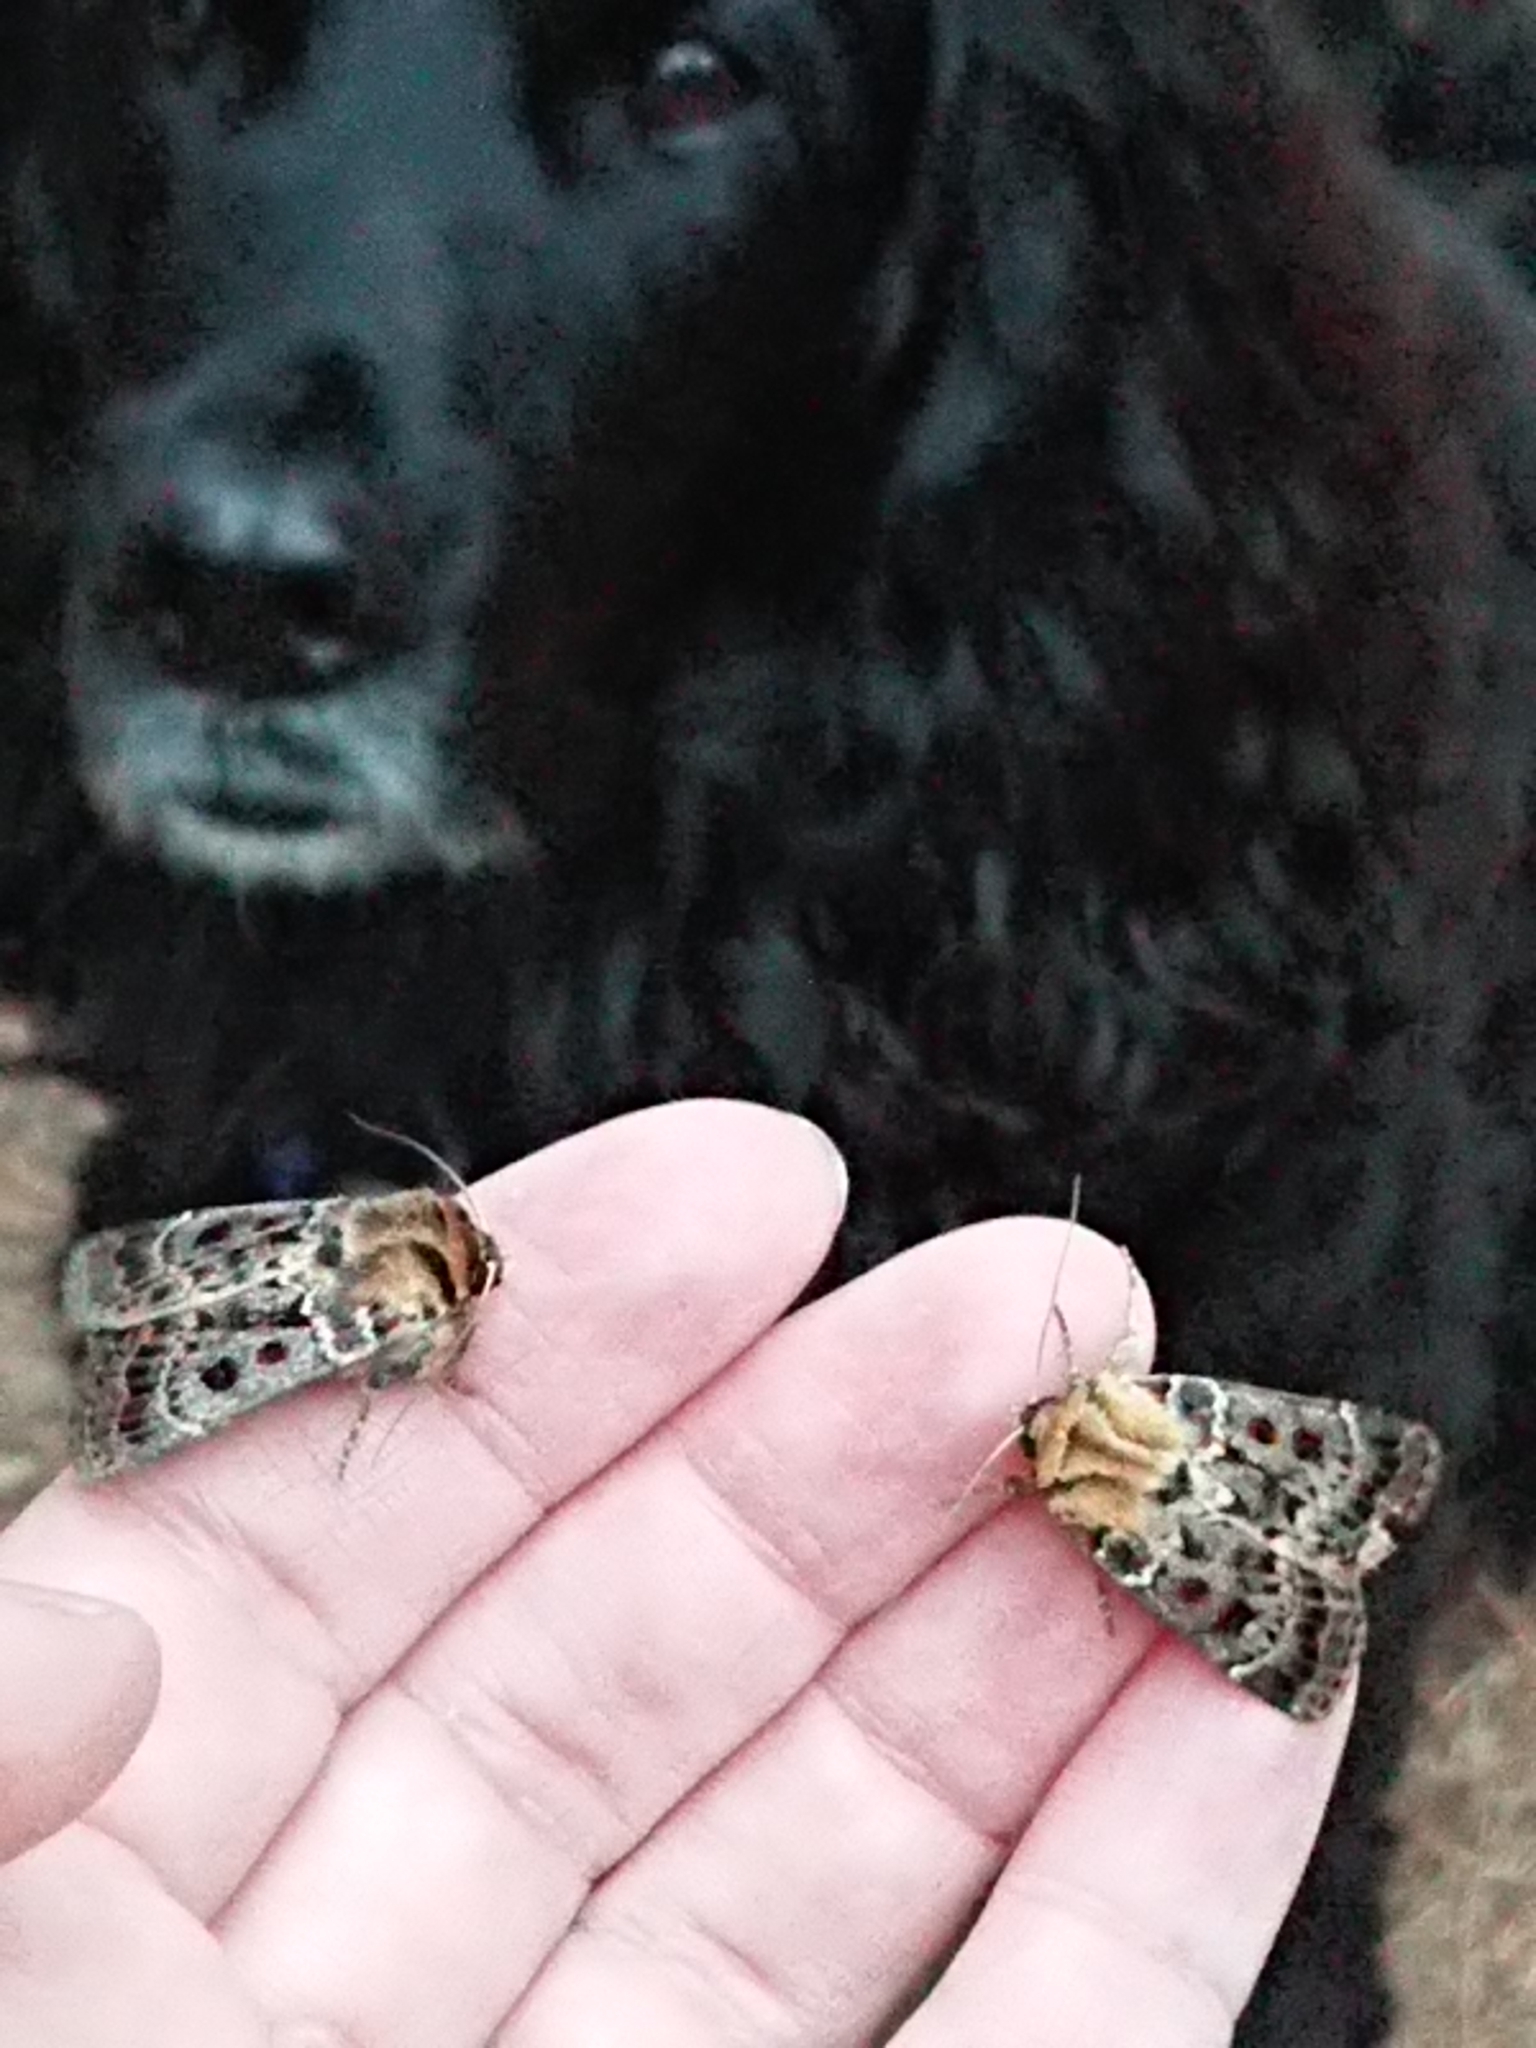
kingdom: Animalia
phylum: Arthropoda
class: Insecta
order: Lepidoptera
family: Noctuidae
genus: Proteuxoa
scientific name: Proteuxoa sanguinipuncta
